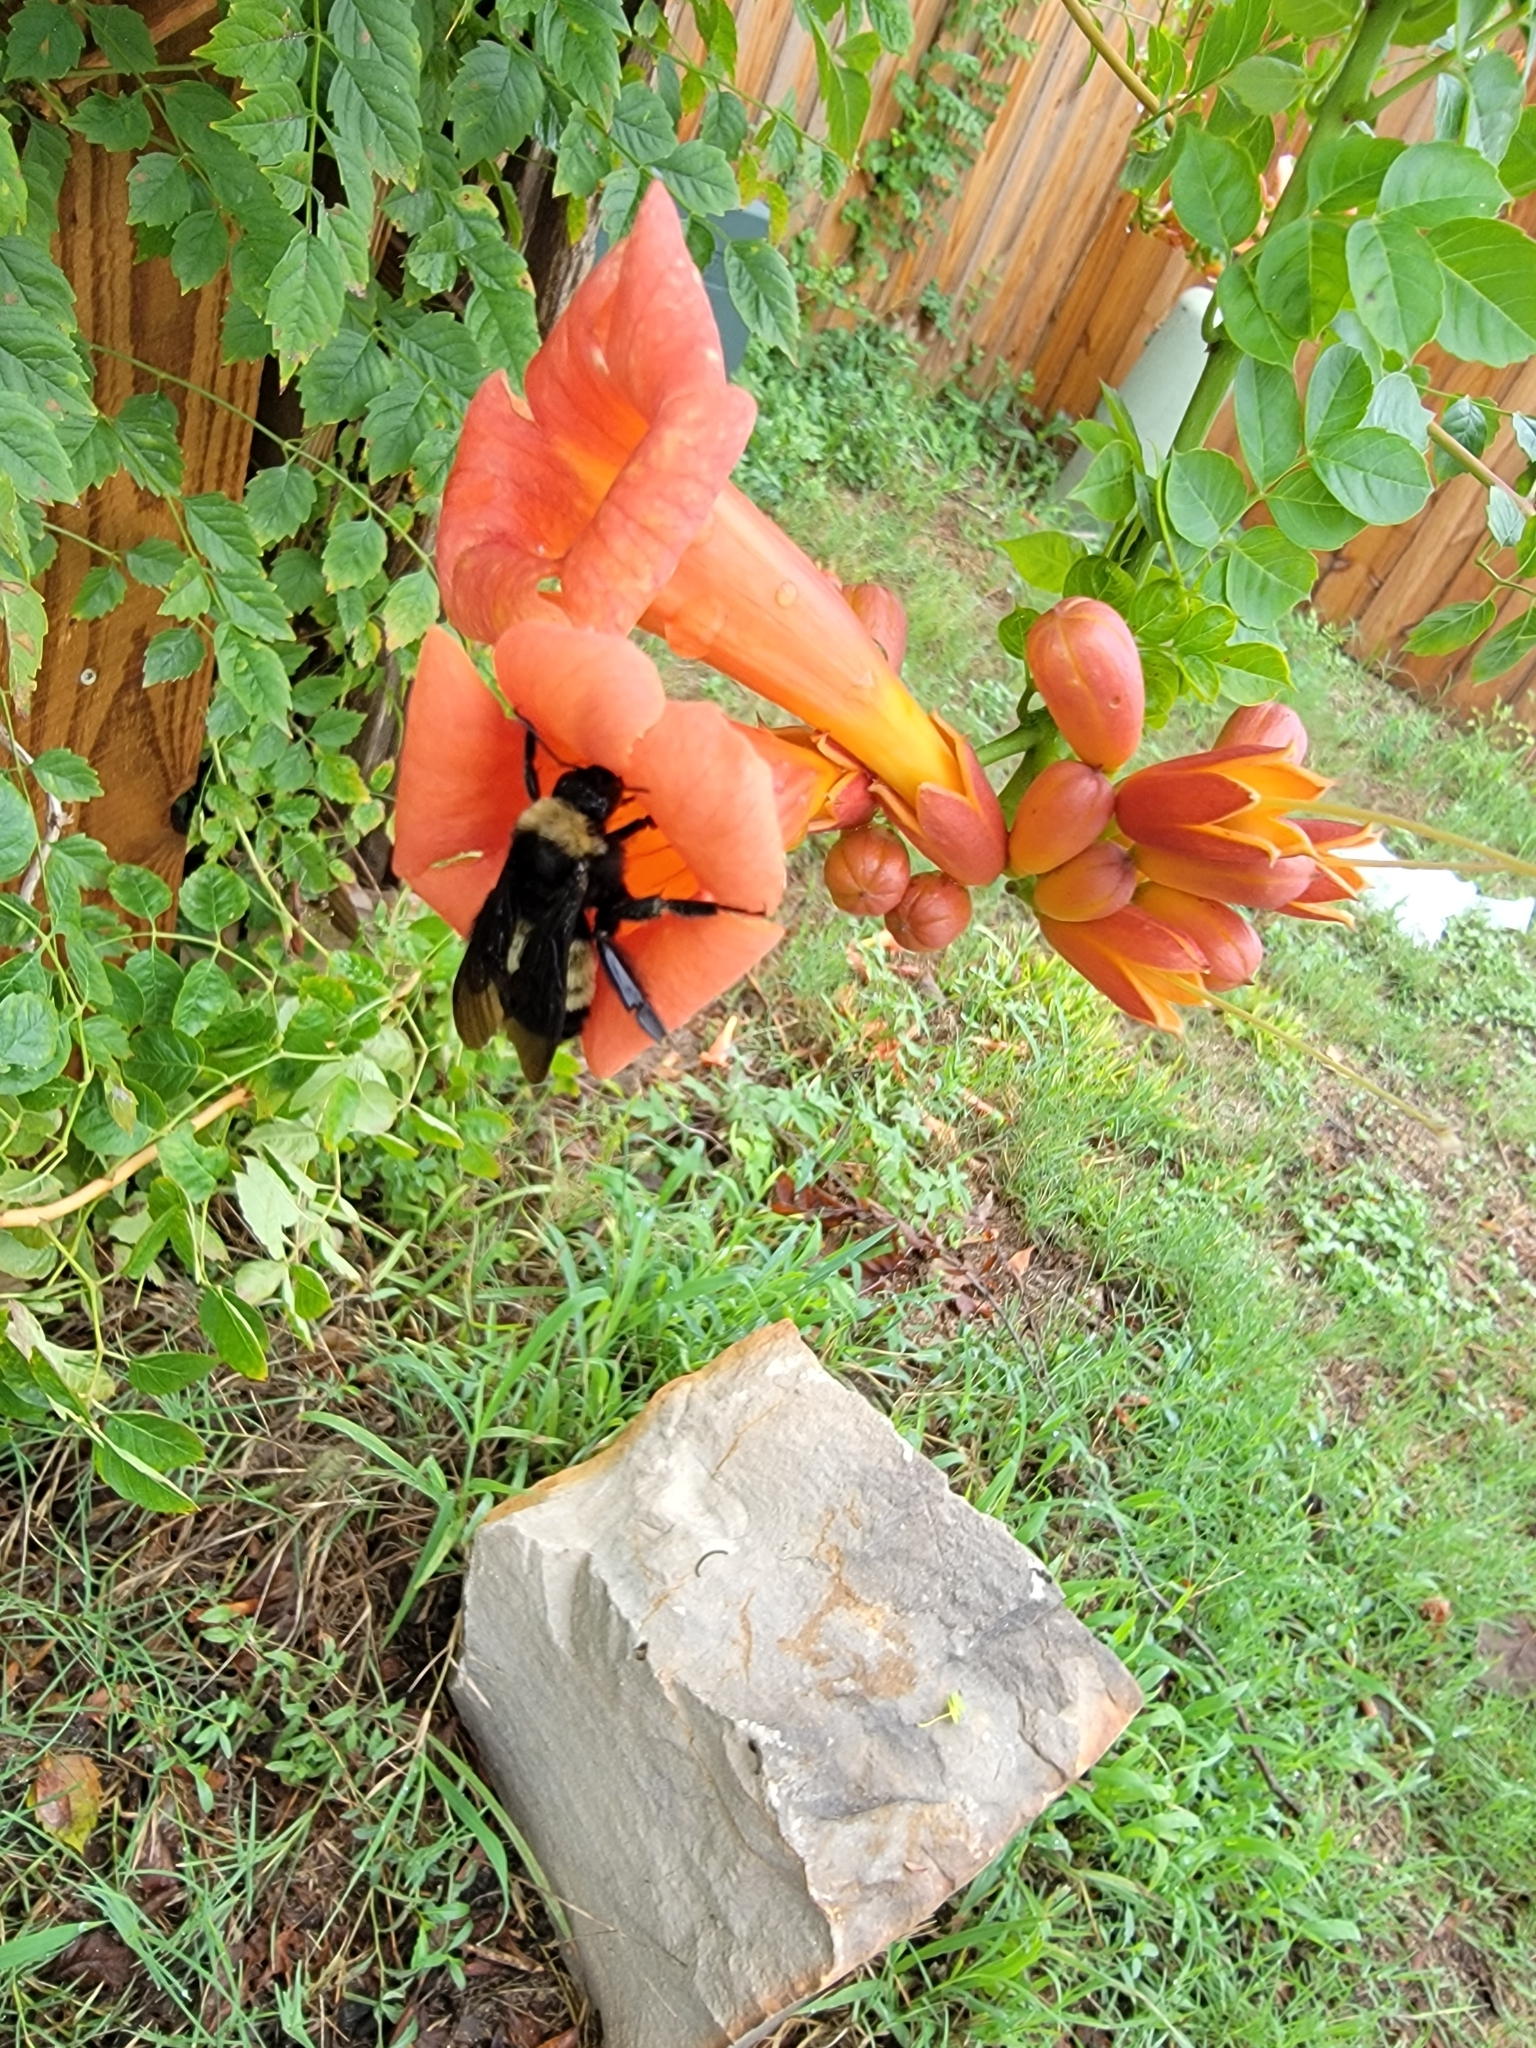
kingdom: Animalia
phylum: Arthropoda
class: Insecta
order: Hymenoptera
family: Apidae
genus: Bombus
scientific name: Bombus pensylvanicus
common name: Bumble bee
